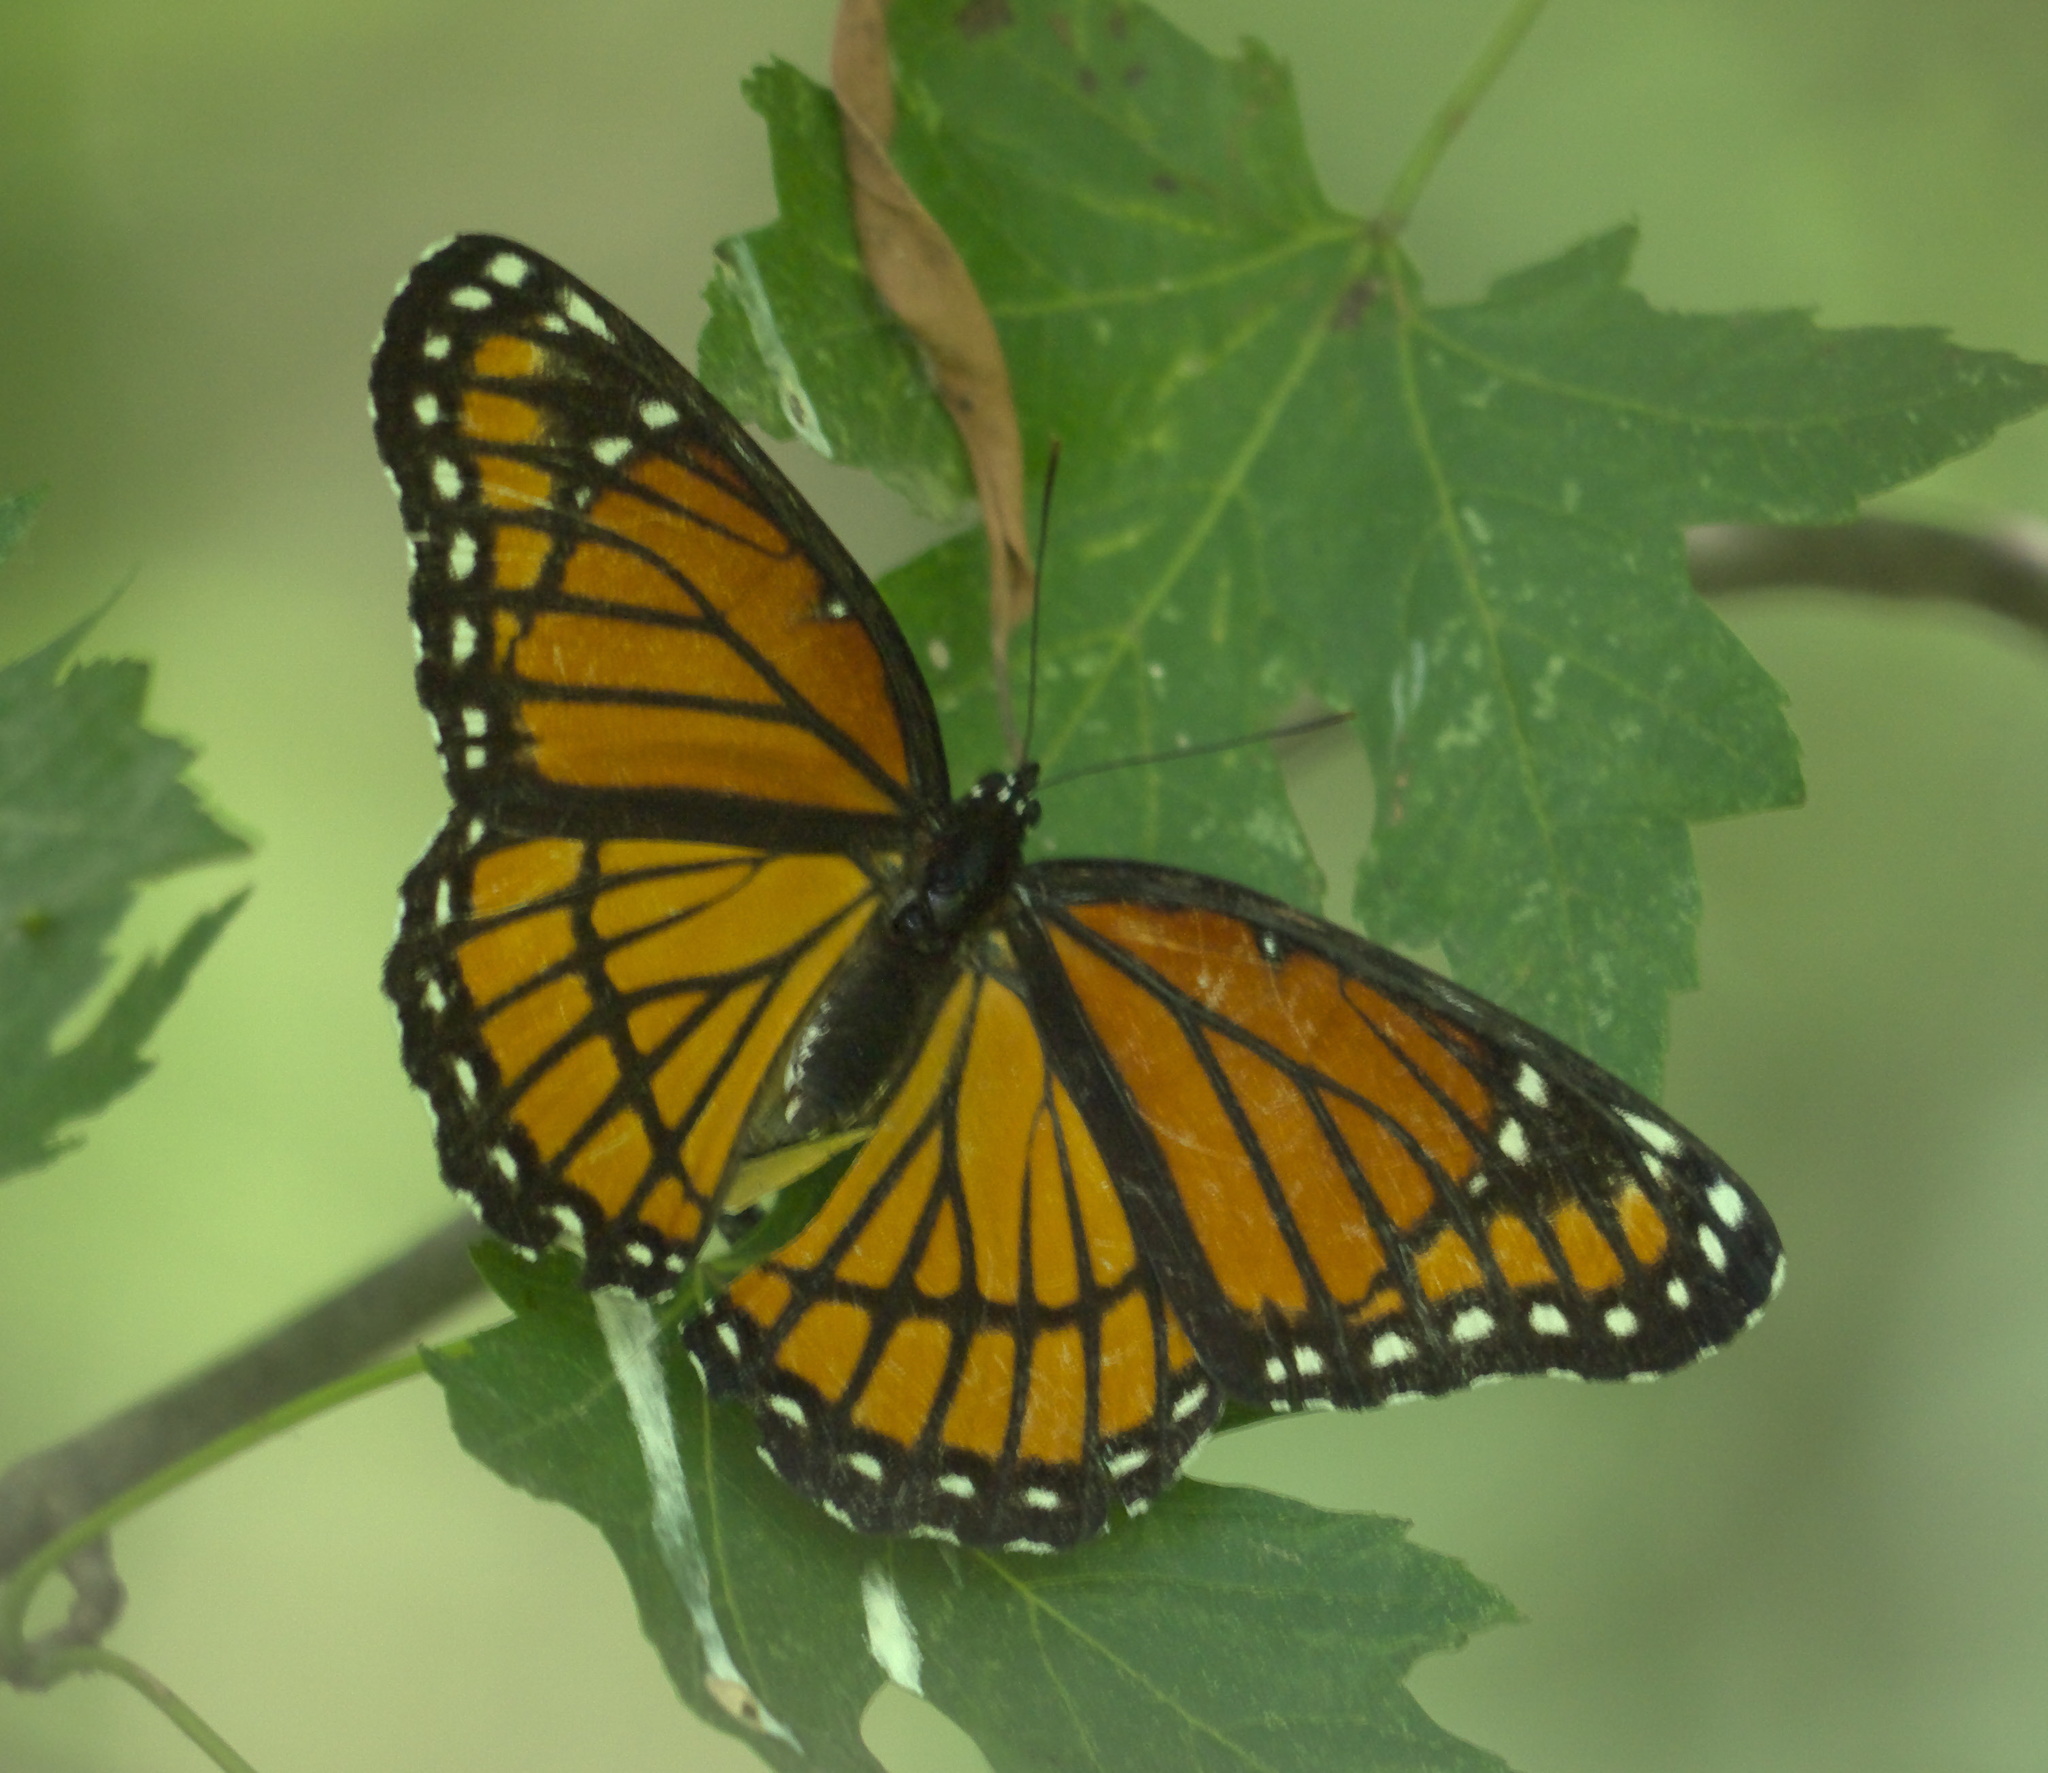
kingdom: Animalia
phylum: Arthropoda
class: Insecta
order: Lepidoptera
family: Nymphalidae
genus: Limenitis
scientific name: Limenitis archippus
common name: Viceroy
